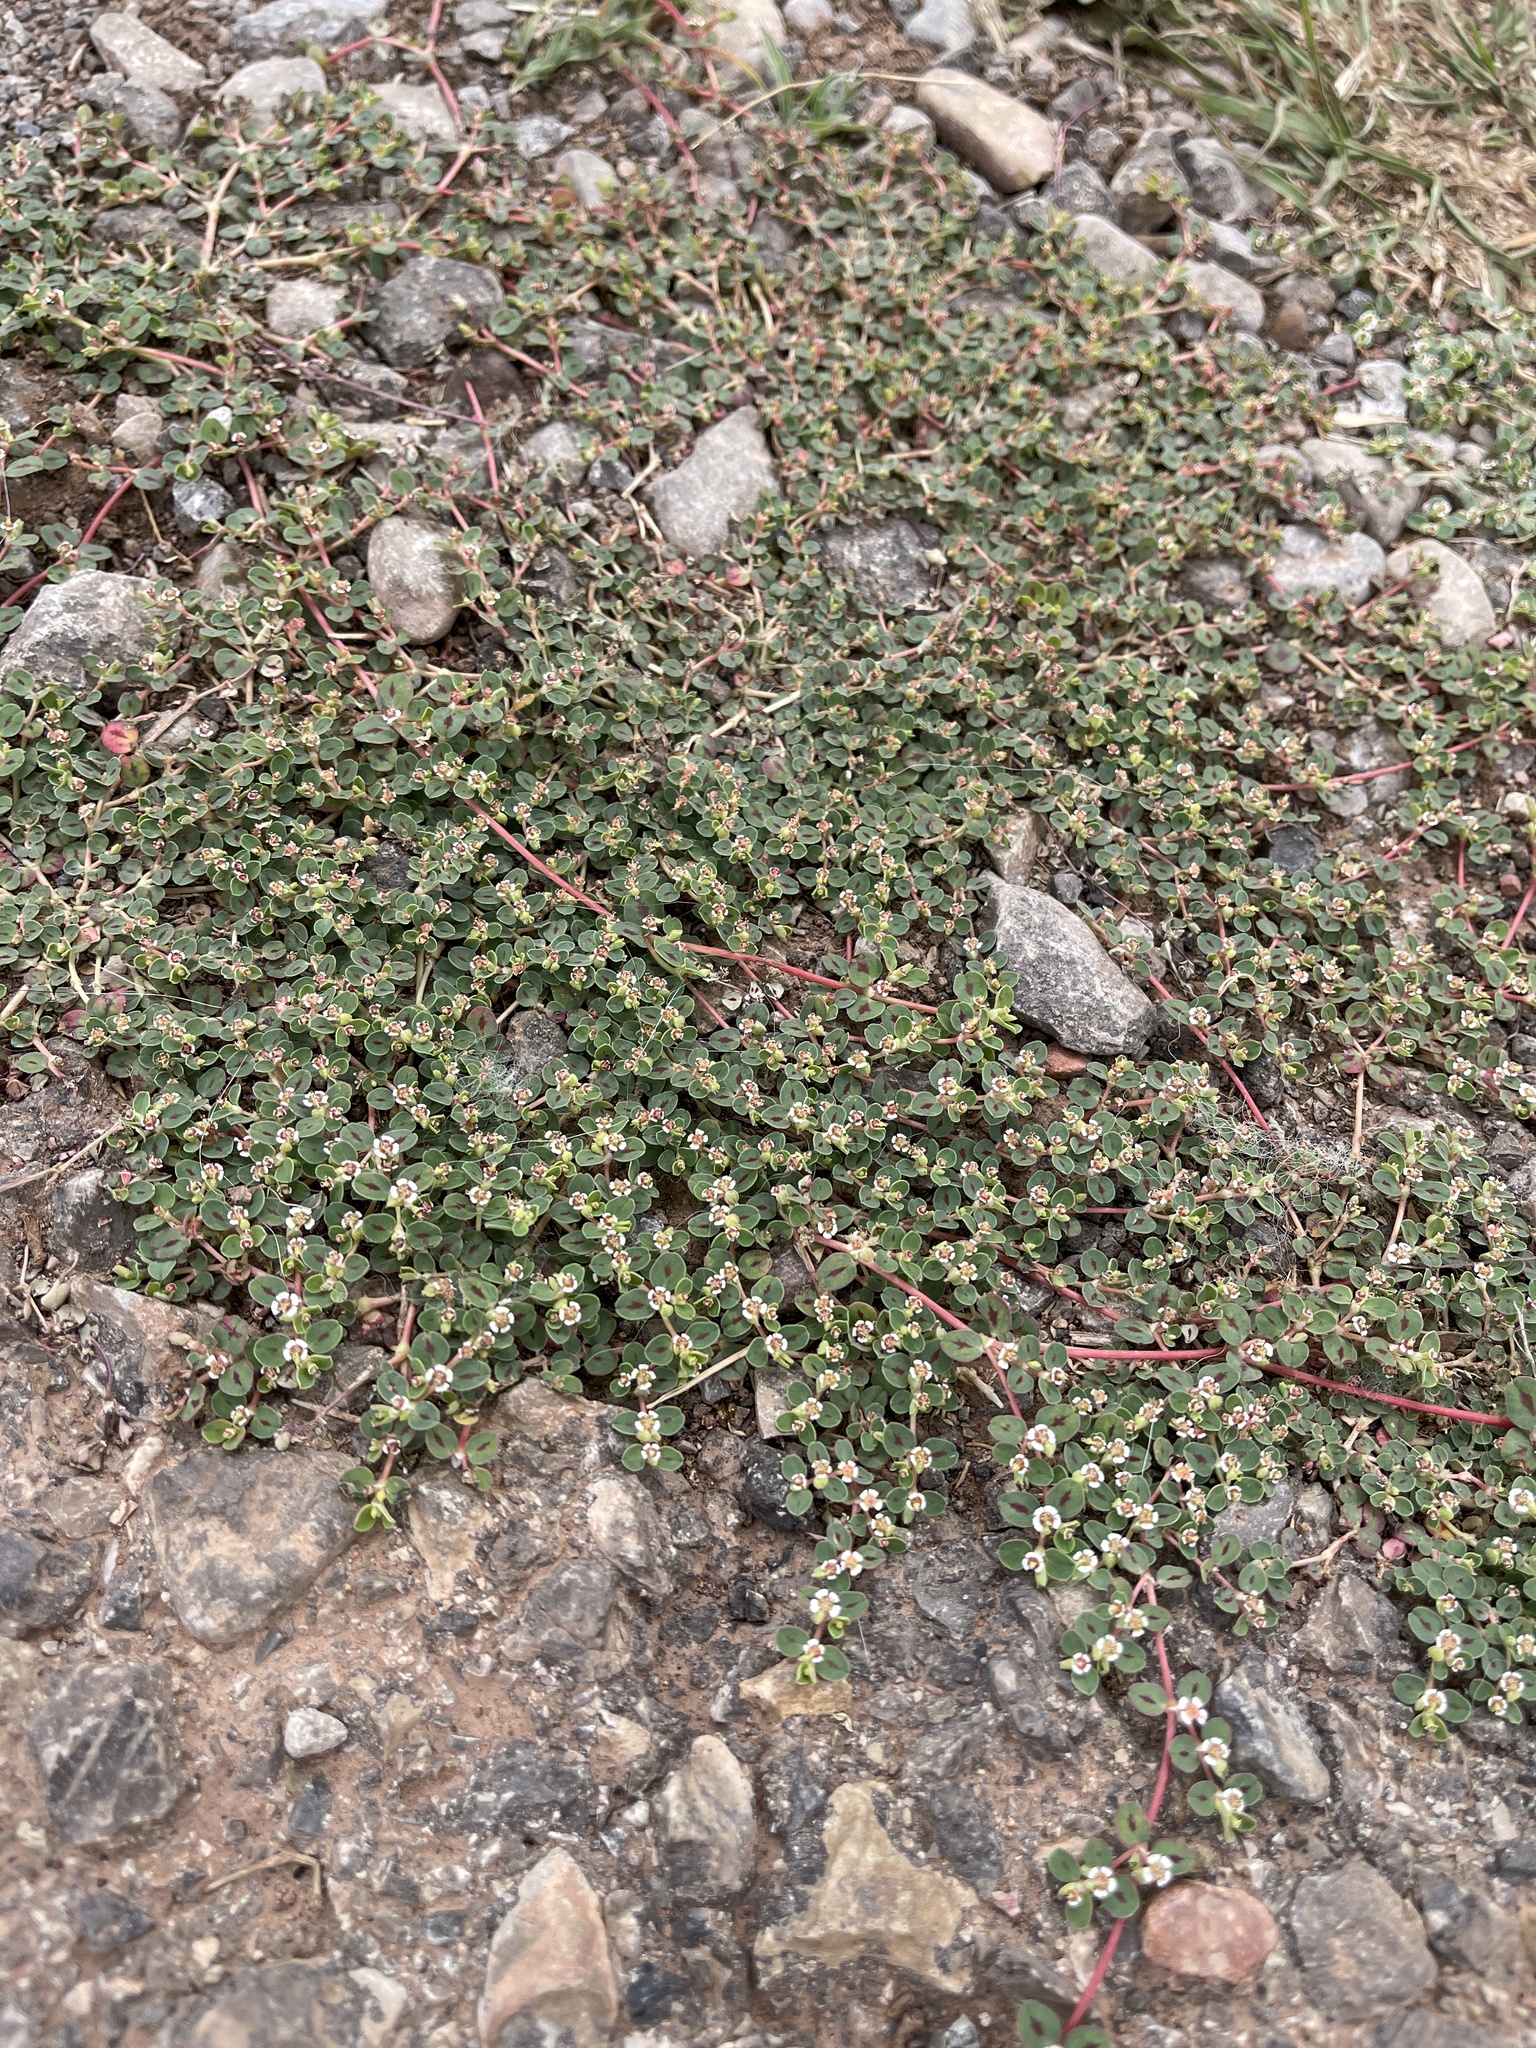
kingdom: Plantae
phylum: Tracheophyta
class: Magnoliopsida
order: Malpighiales
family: Euphorbiaceae
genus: Euphorbia
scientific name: Euphorbia albomarginata
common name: Whitemargin sandmat
